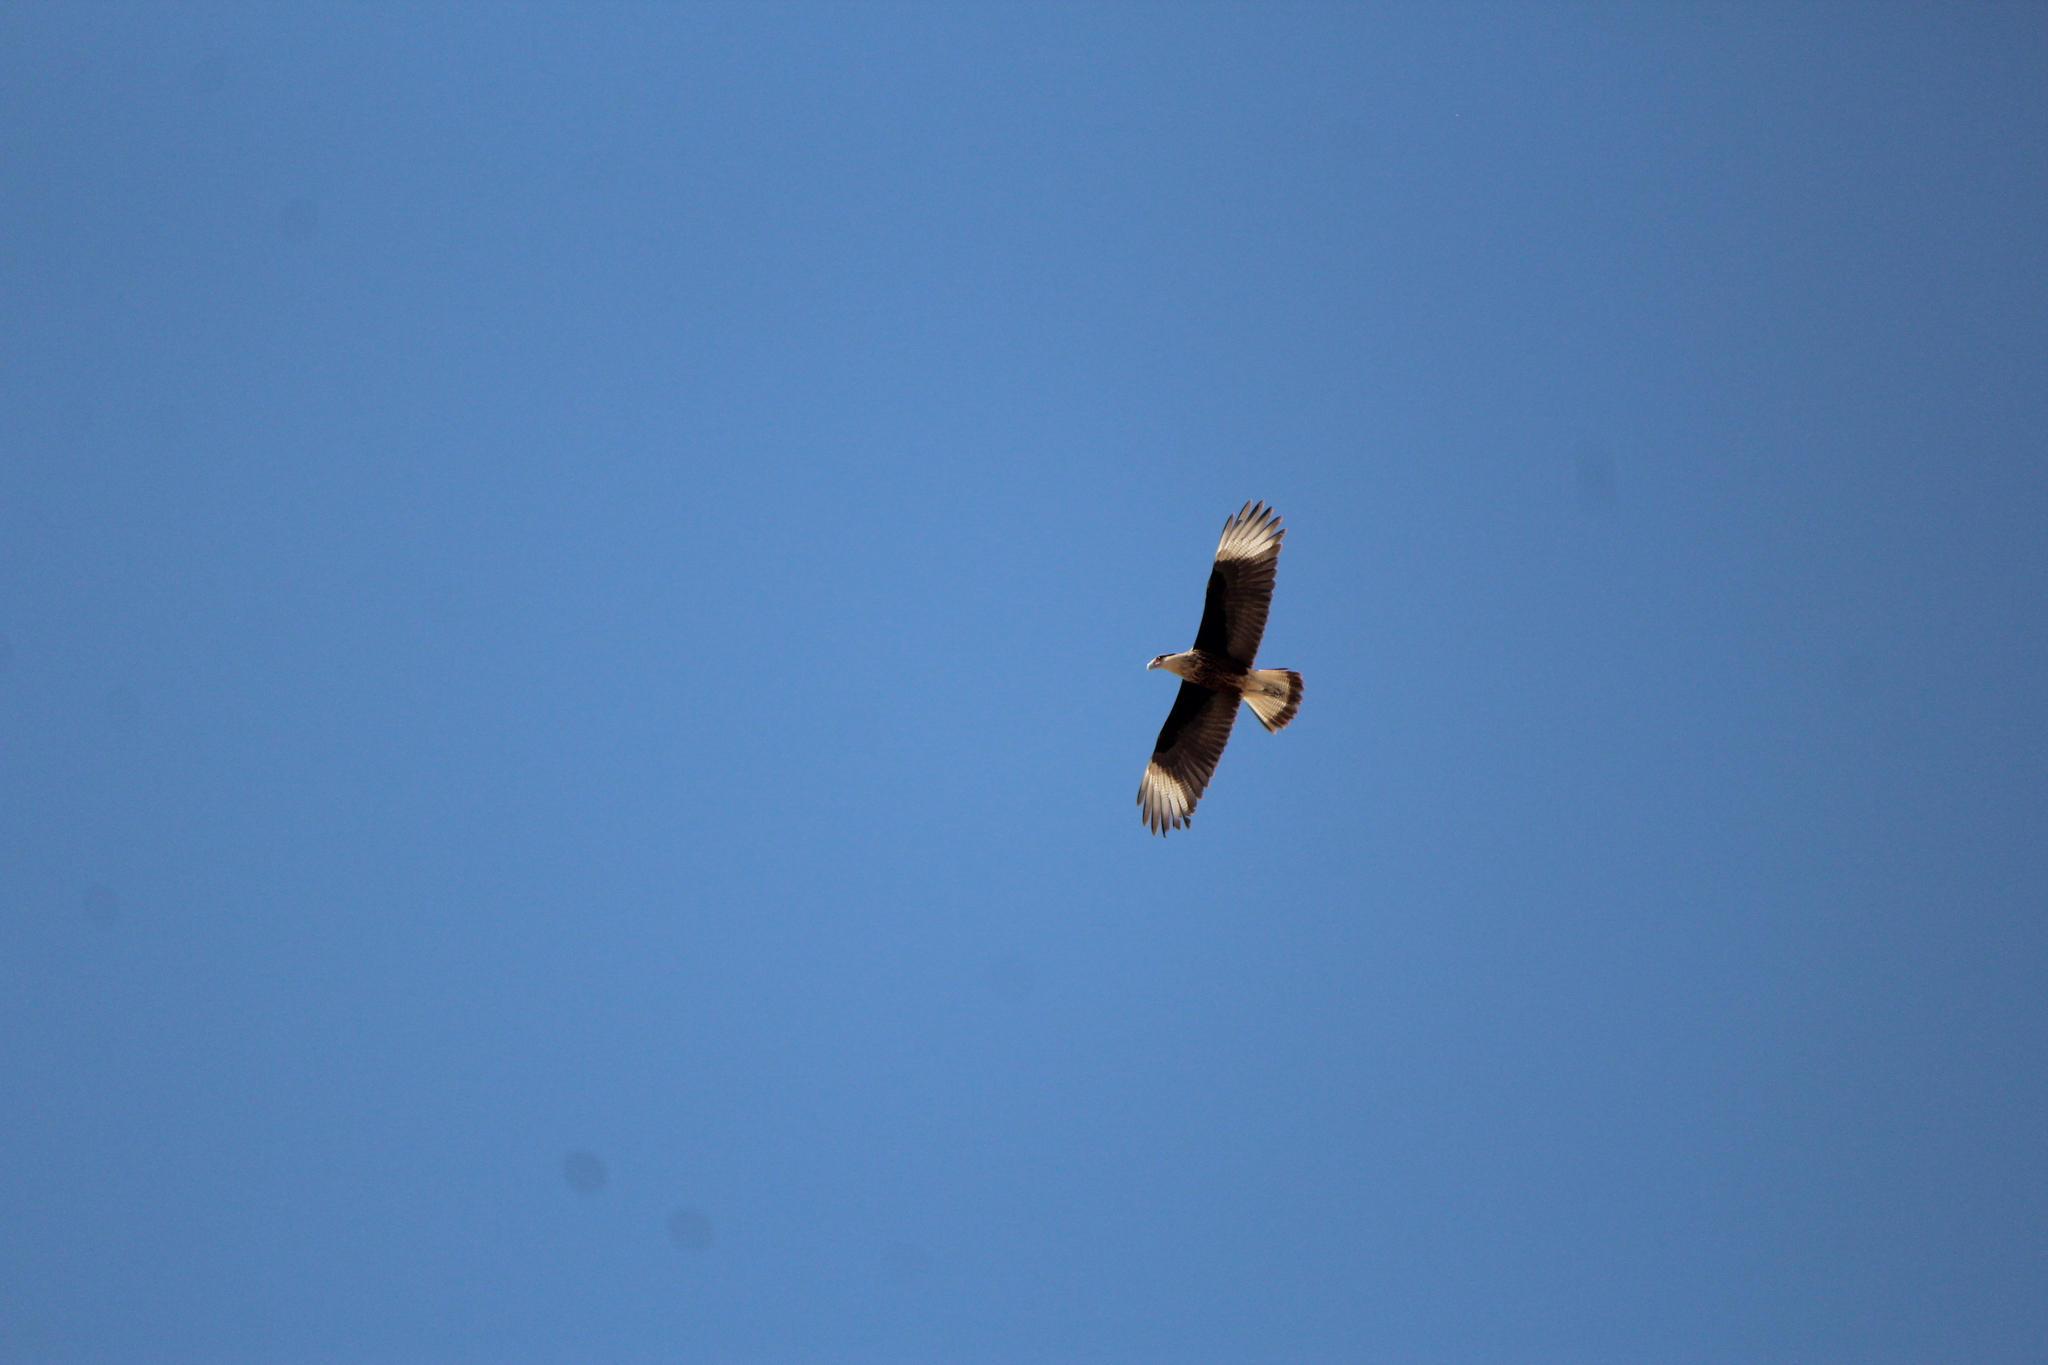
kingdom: Animalia
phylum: Chordata
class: Aves
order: Falconiformes
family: Falconidae
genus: Caracara
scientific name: Caracara plancus
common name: Southern caracara
